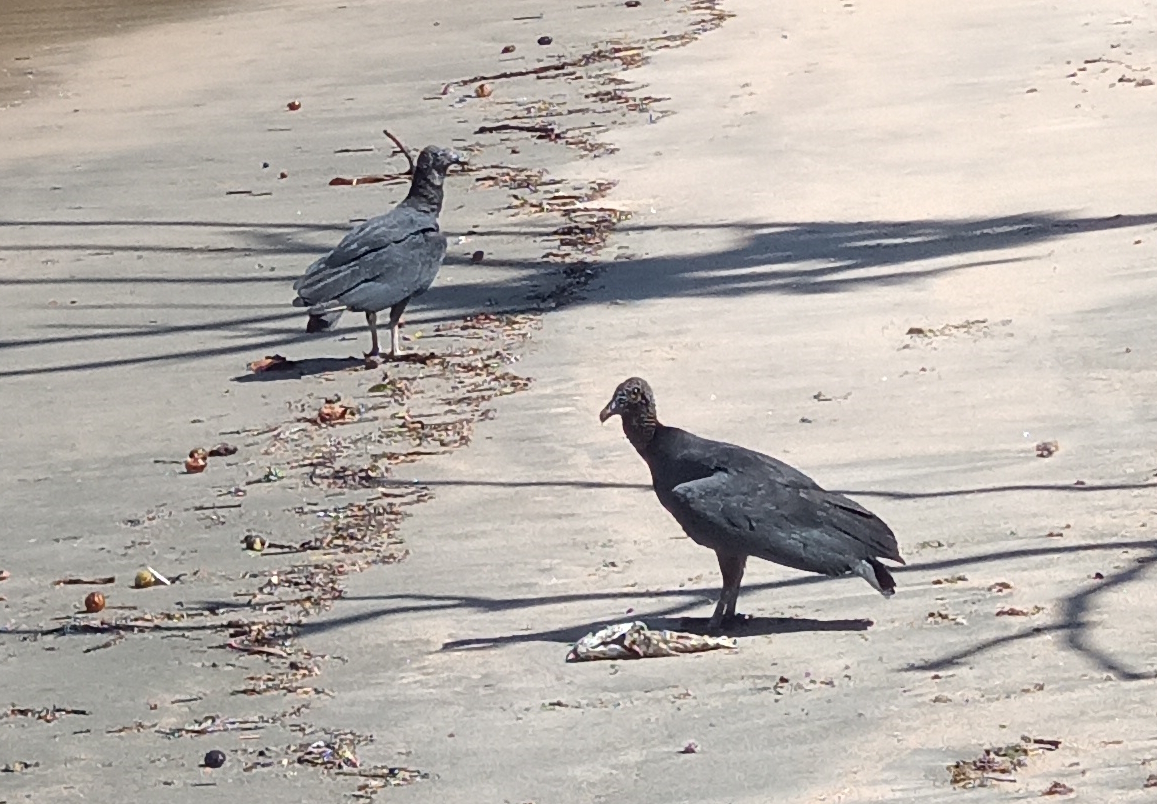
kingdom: Animalia
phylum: Chordata
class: Aves
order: Accipitriformes
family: Cathartidae
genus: Coragyps
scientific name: Coragyps atratus
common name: Black vulture
